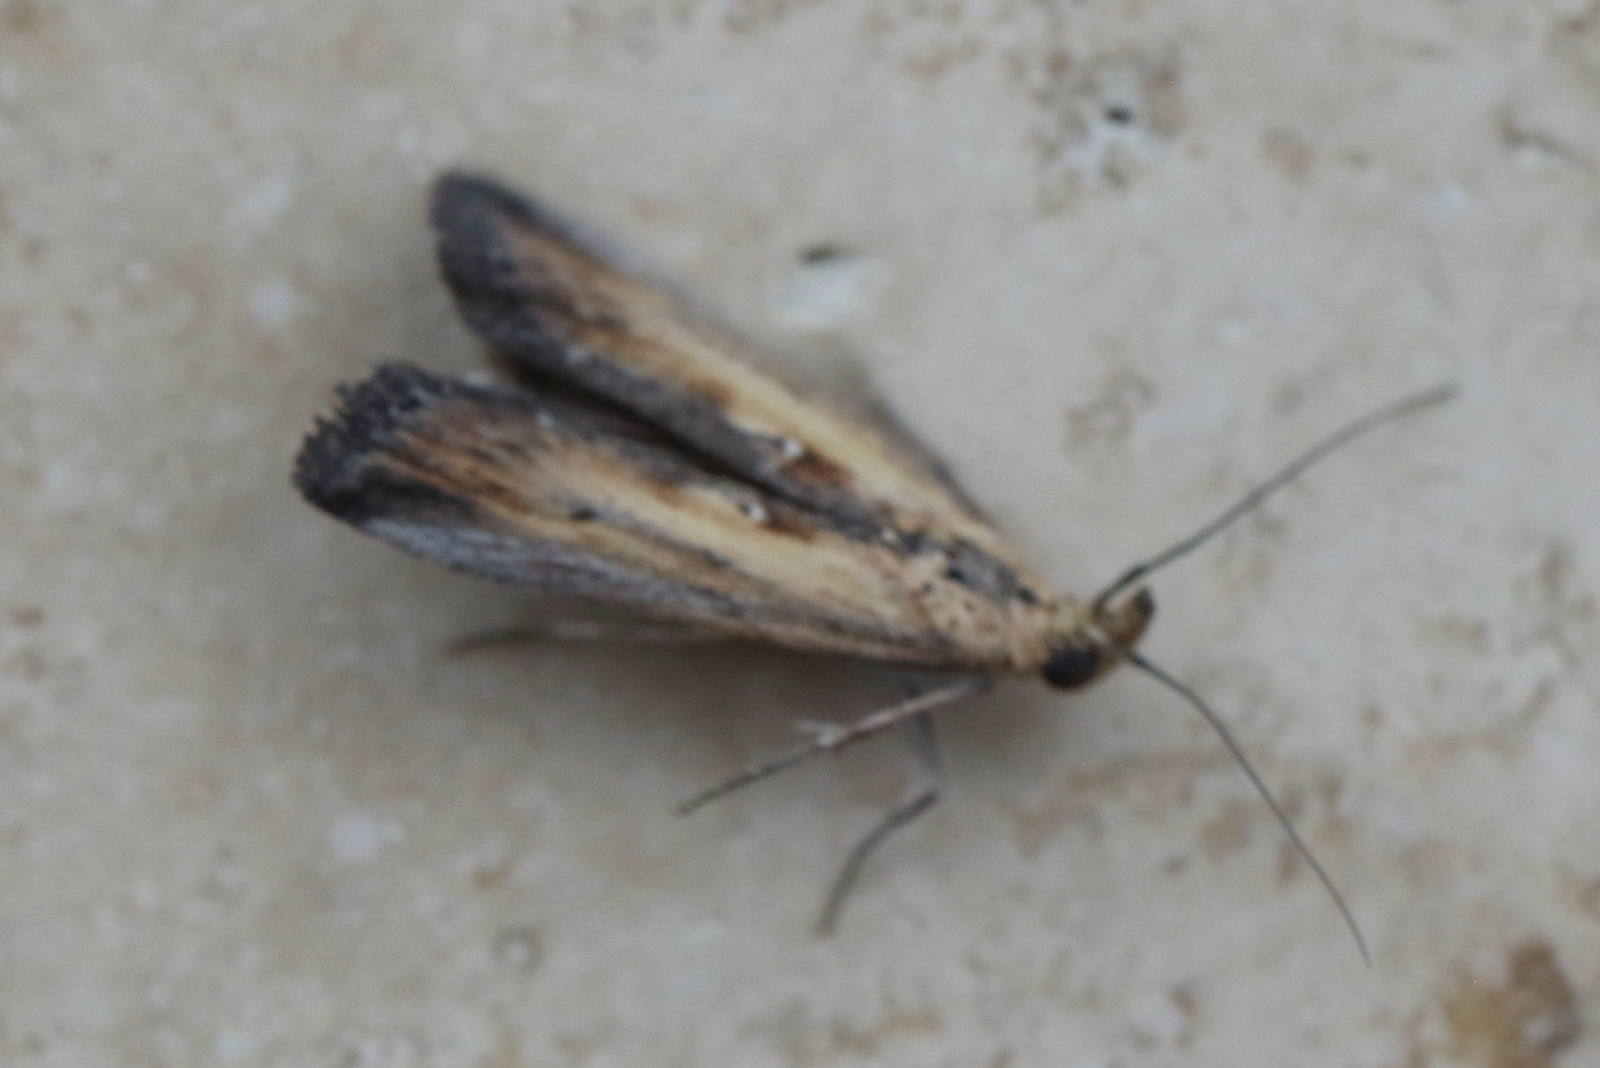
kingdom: Animalia
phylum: Arthropoda
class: Insecta
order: Lepidoptera
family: Pyralidae
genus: Morosaphycita
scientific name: Morosaphycita oculiferella
